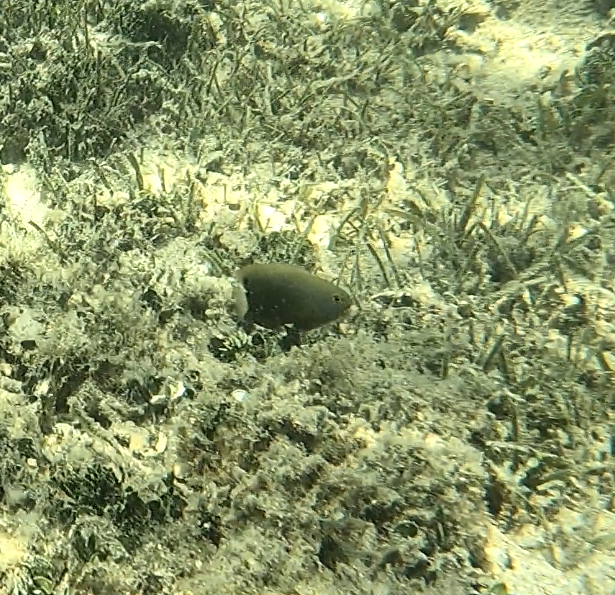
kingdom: Animalia
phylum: Chordata
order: Perciformes
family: Pomacentridae
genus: Pomacentrus
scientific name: Pomacentrus chrysurus
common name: White-tail damsel
